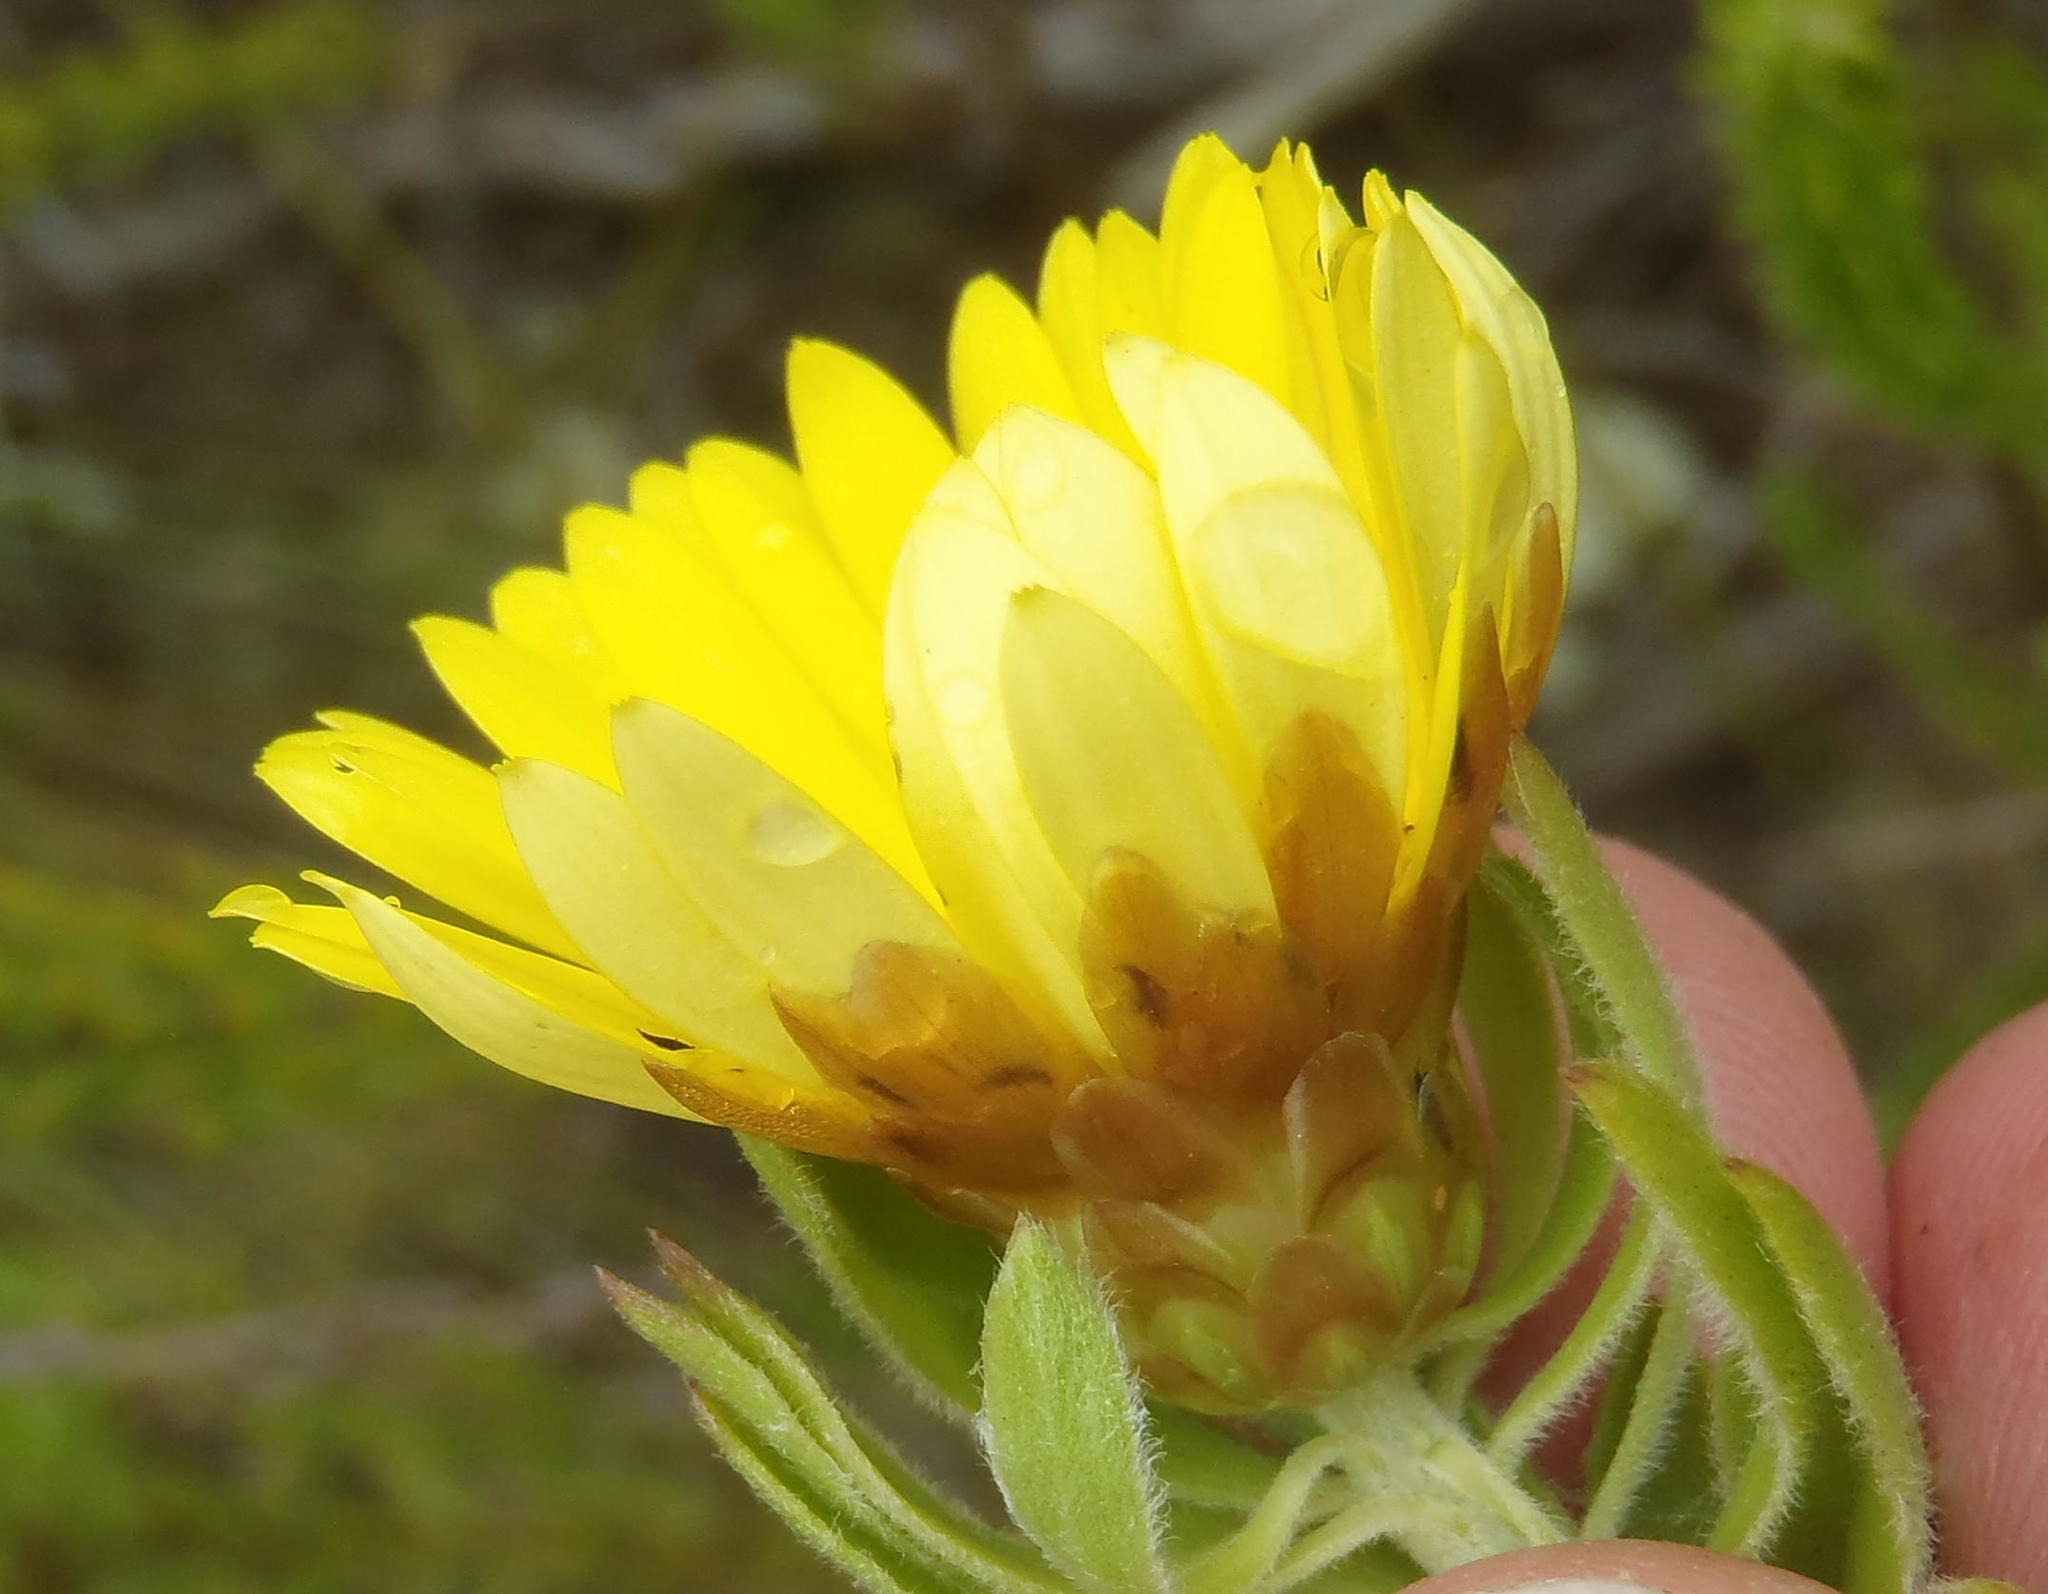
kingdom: Plantae
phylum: Tracheophyta
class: Magnoliopsida
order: Asterales
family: Asteraceae
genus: Oedera
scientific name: Oedera calycina
